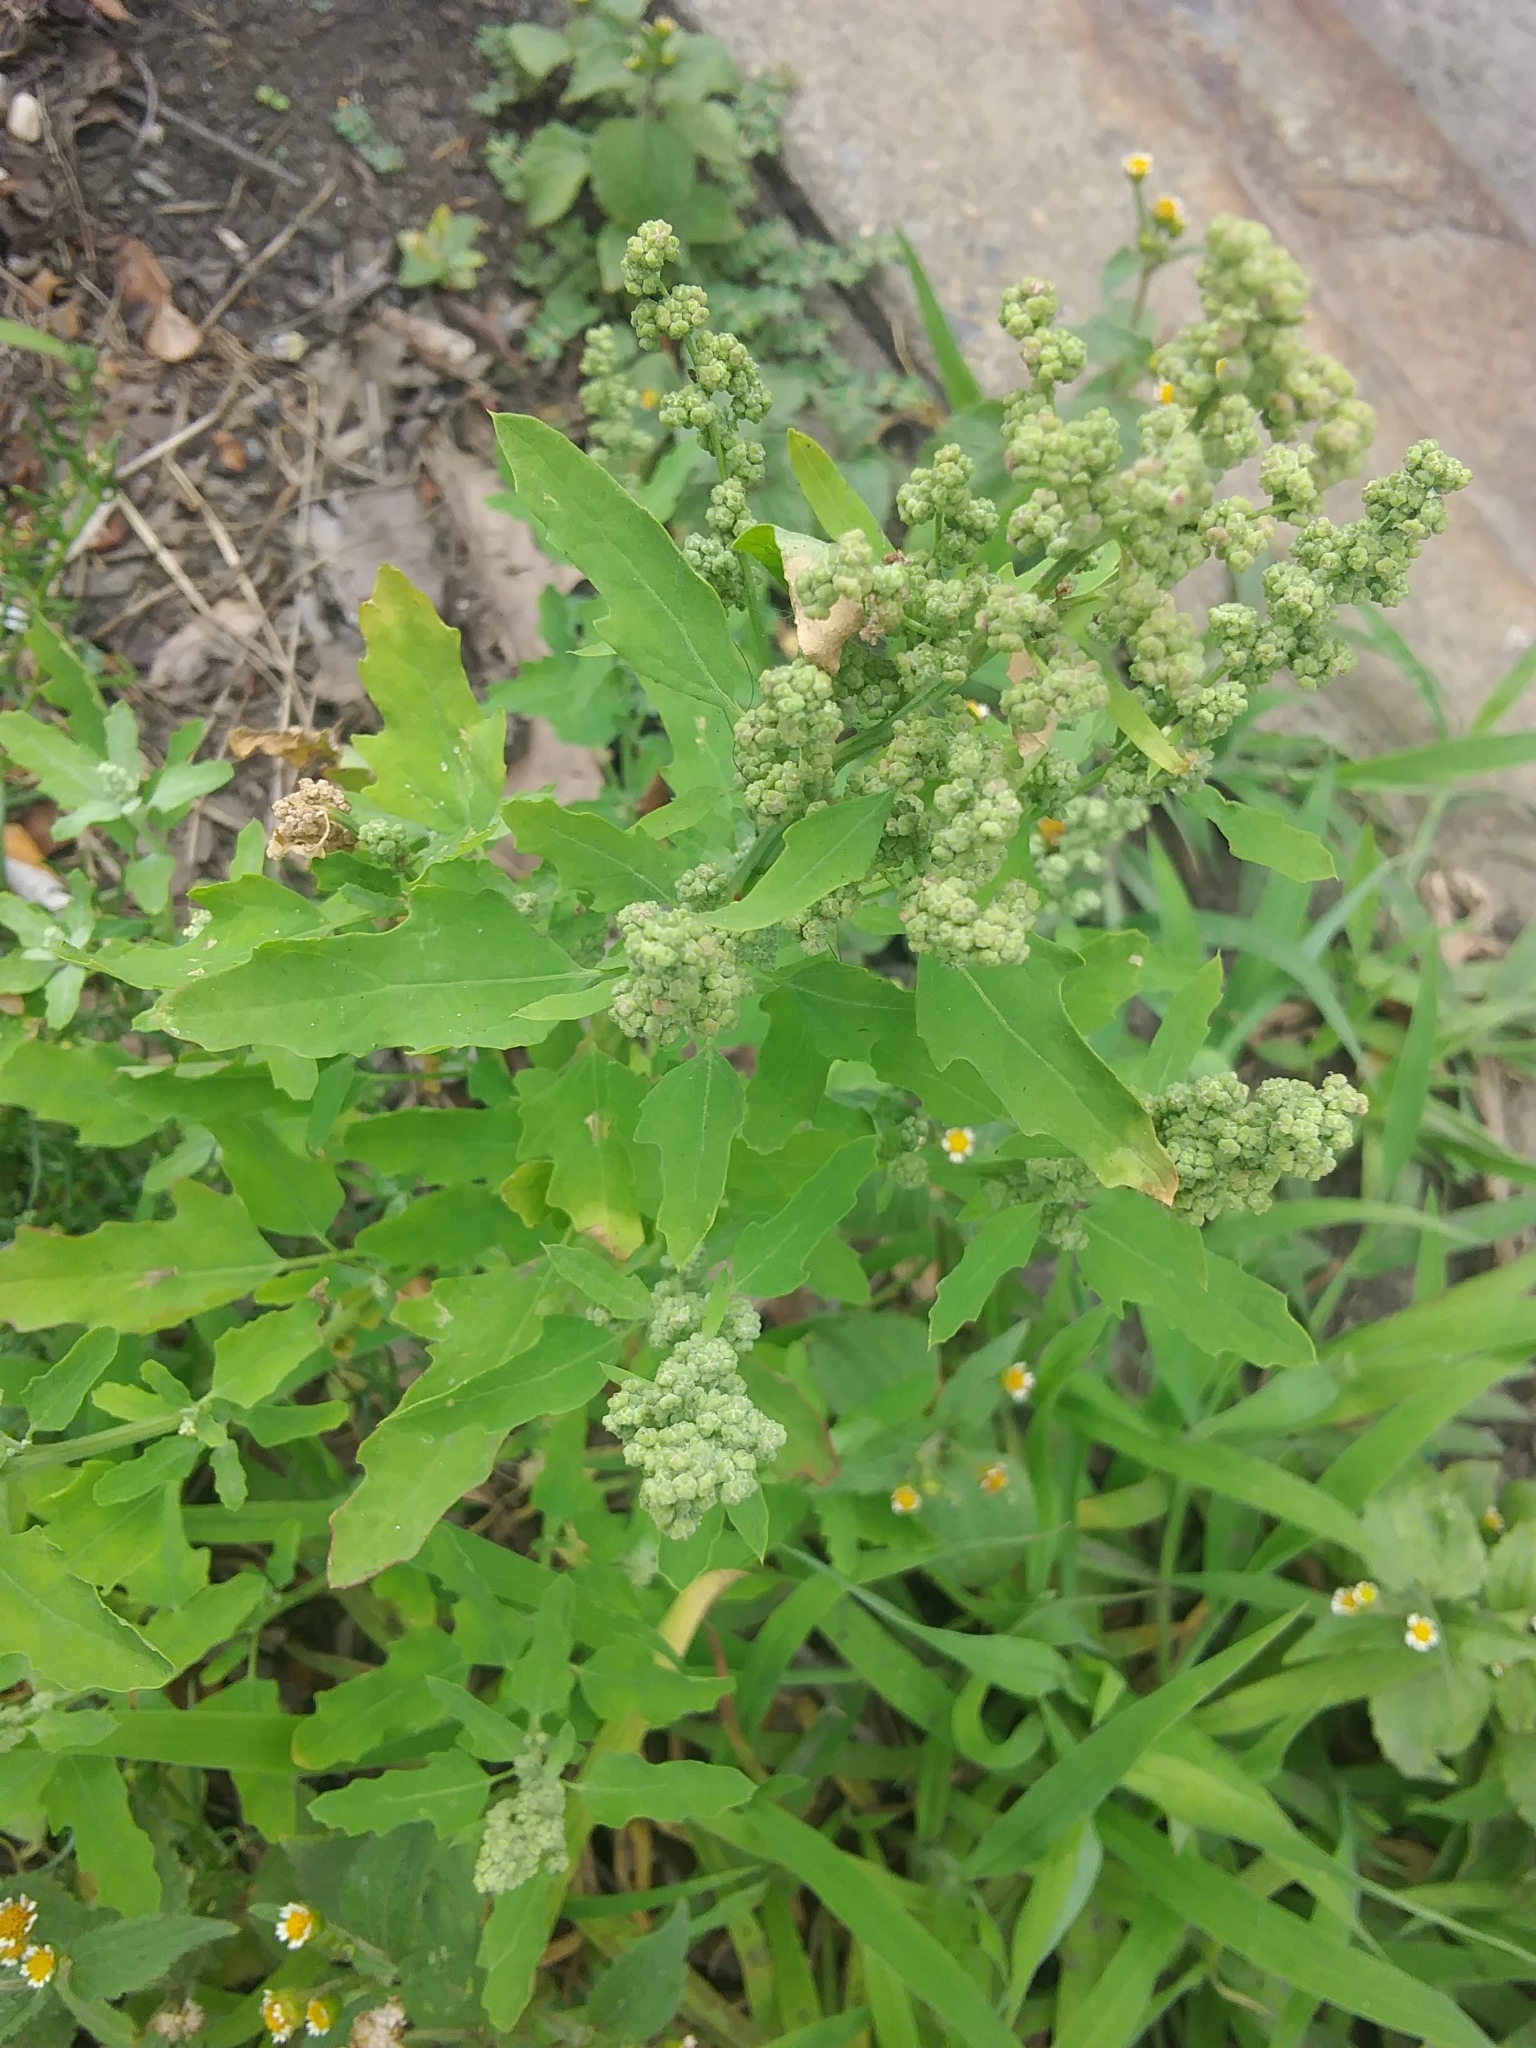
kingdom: Plantae
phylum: Tracheophyta
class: Magnoliopsida
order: Caryophyllales
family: Amaranthaceae
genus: Chenopodium
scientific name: Chenopodium album
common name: Fat-hen
